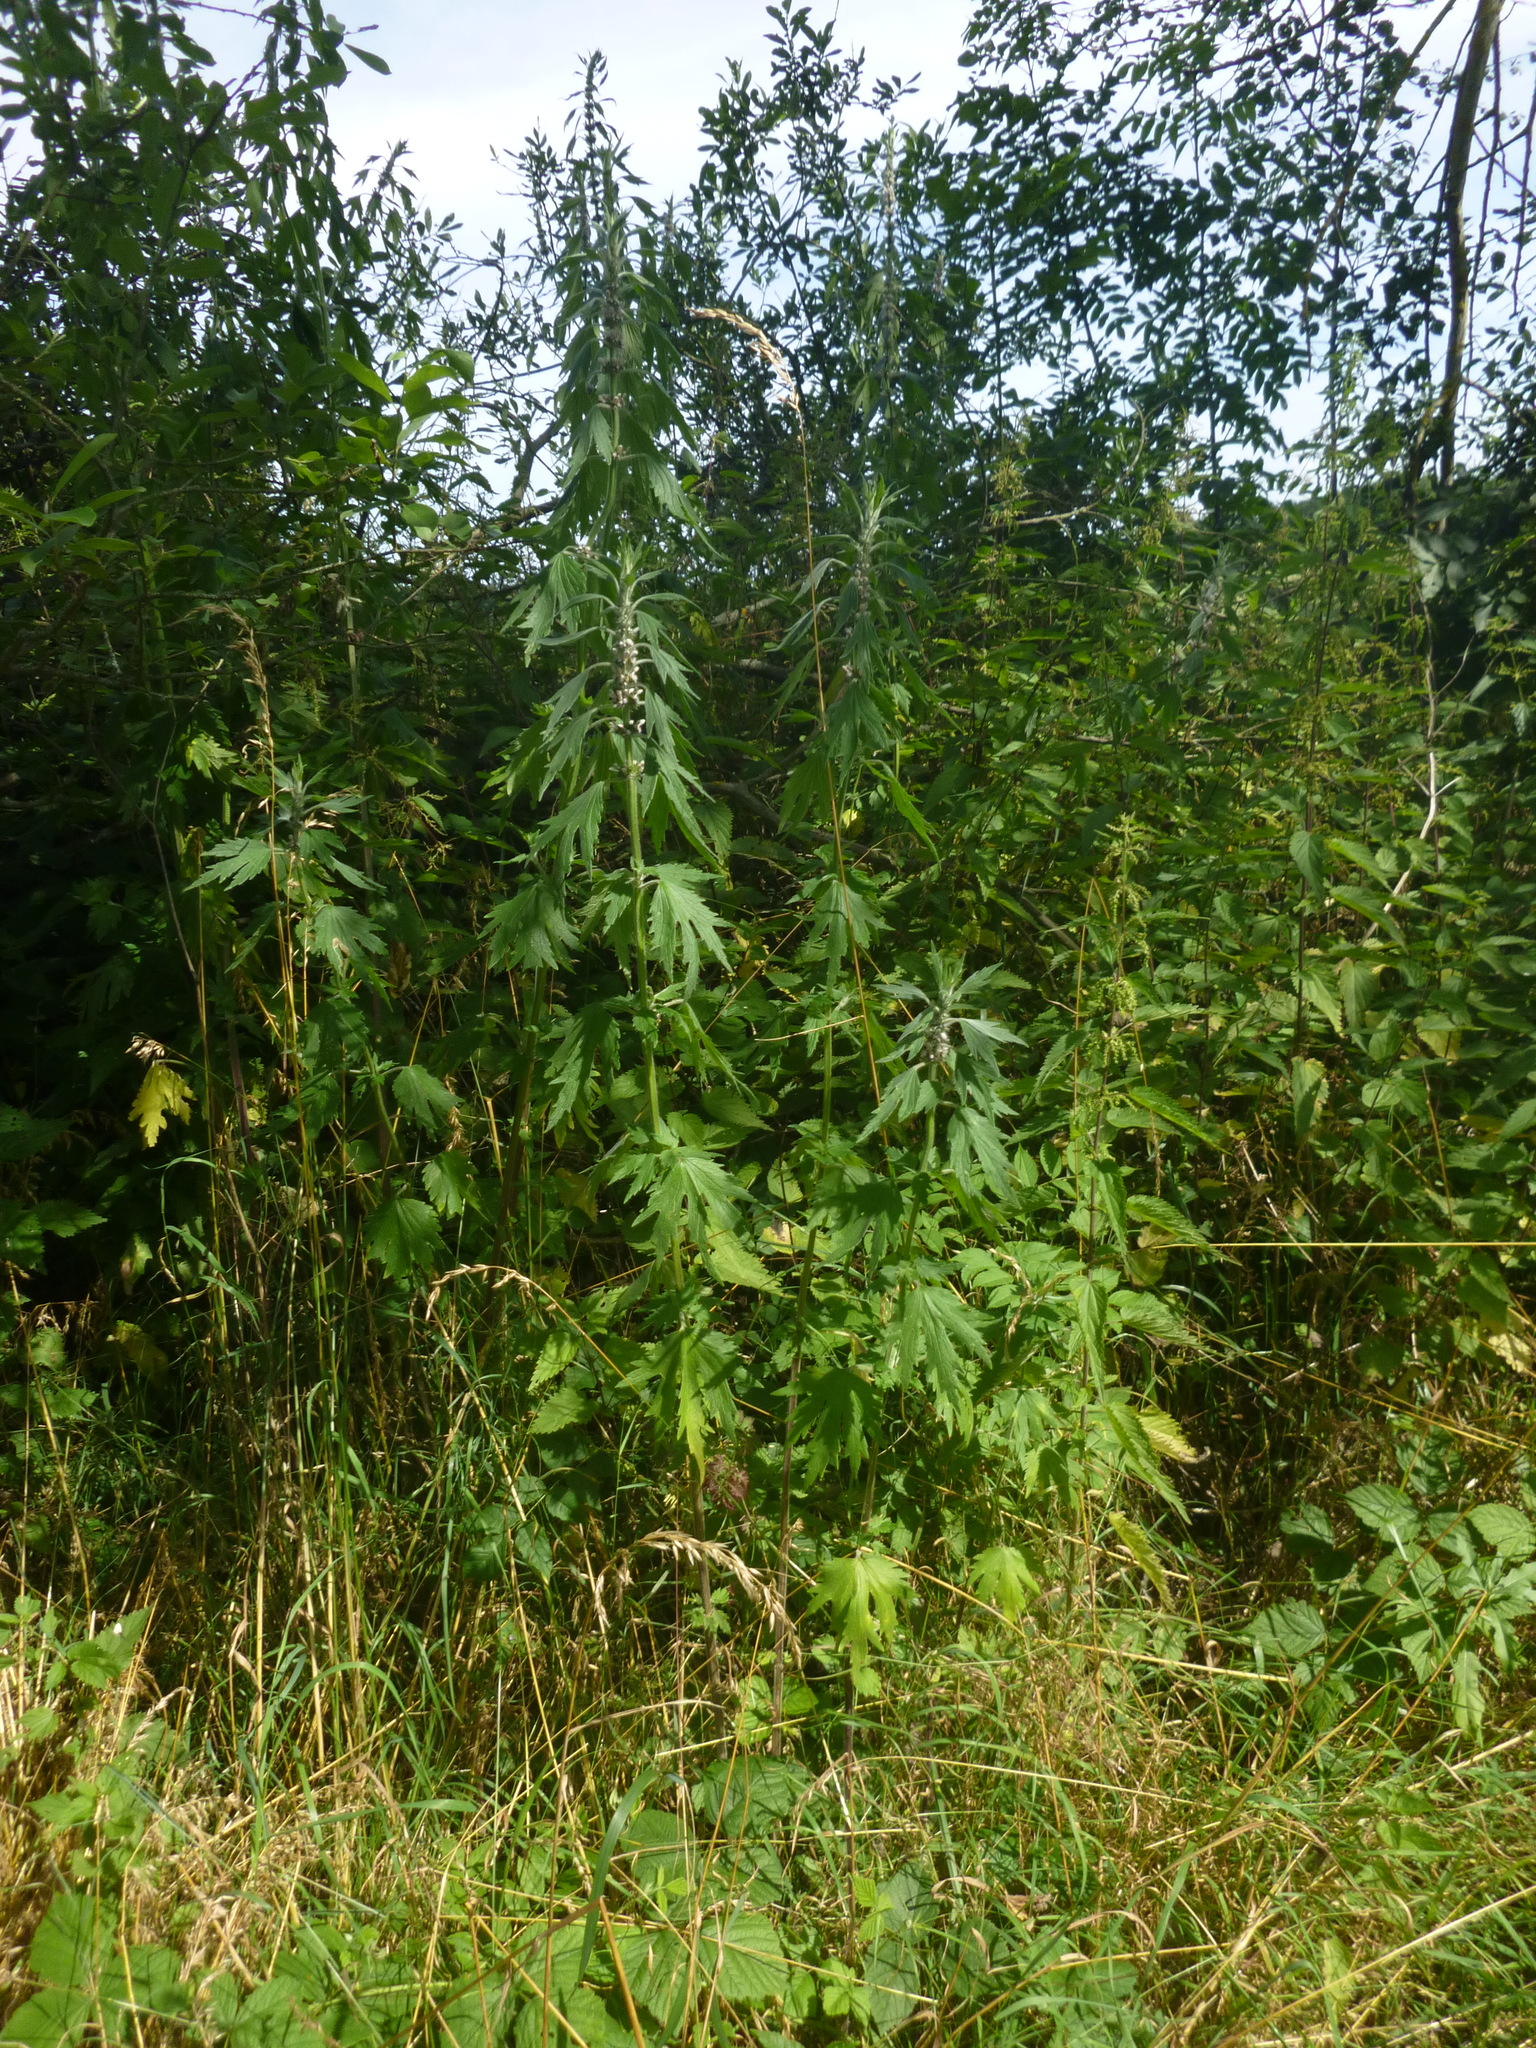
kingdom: Plantae
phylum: Tracheophyta
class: Magnoliopsida
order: Lamiales
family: Lamiaceae
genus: Leonurus
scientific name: Leonurus cardiaca
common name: Motherwort
